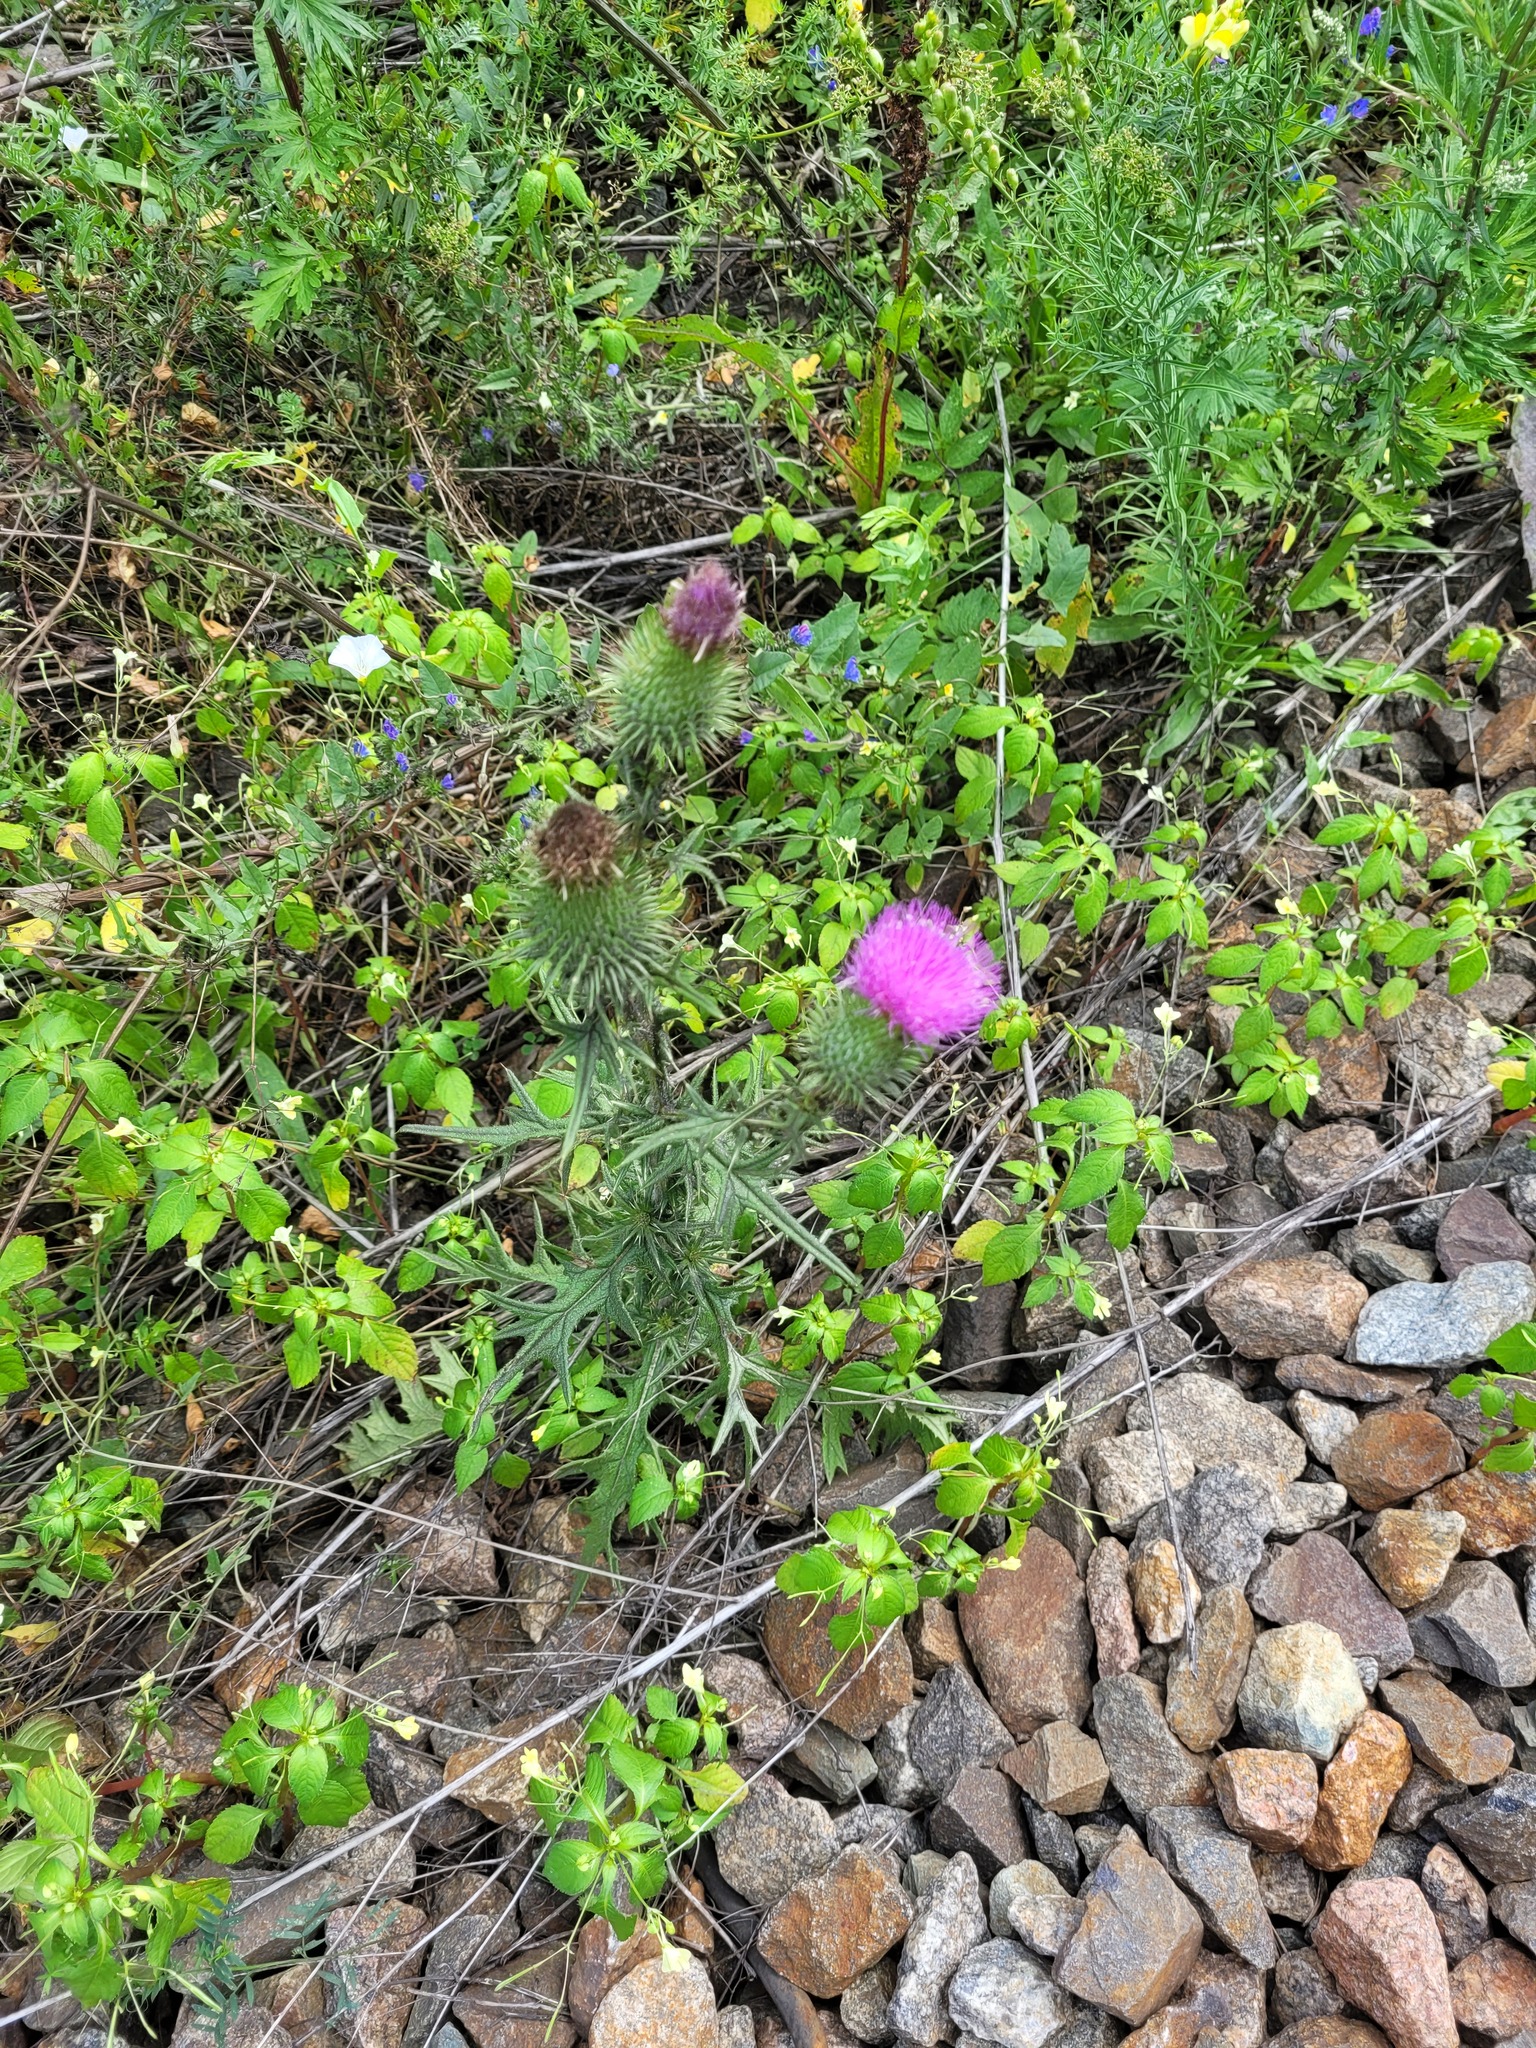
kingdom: Plantae
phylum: Tracheophyta
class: Magnoliopsida
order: Asterales
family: Asteraceae
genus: Cirsium
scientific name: Cirsium vulgare
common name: Bull thistle
